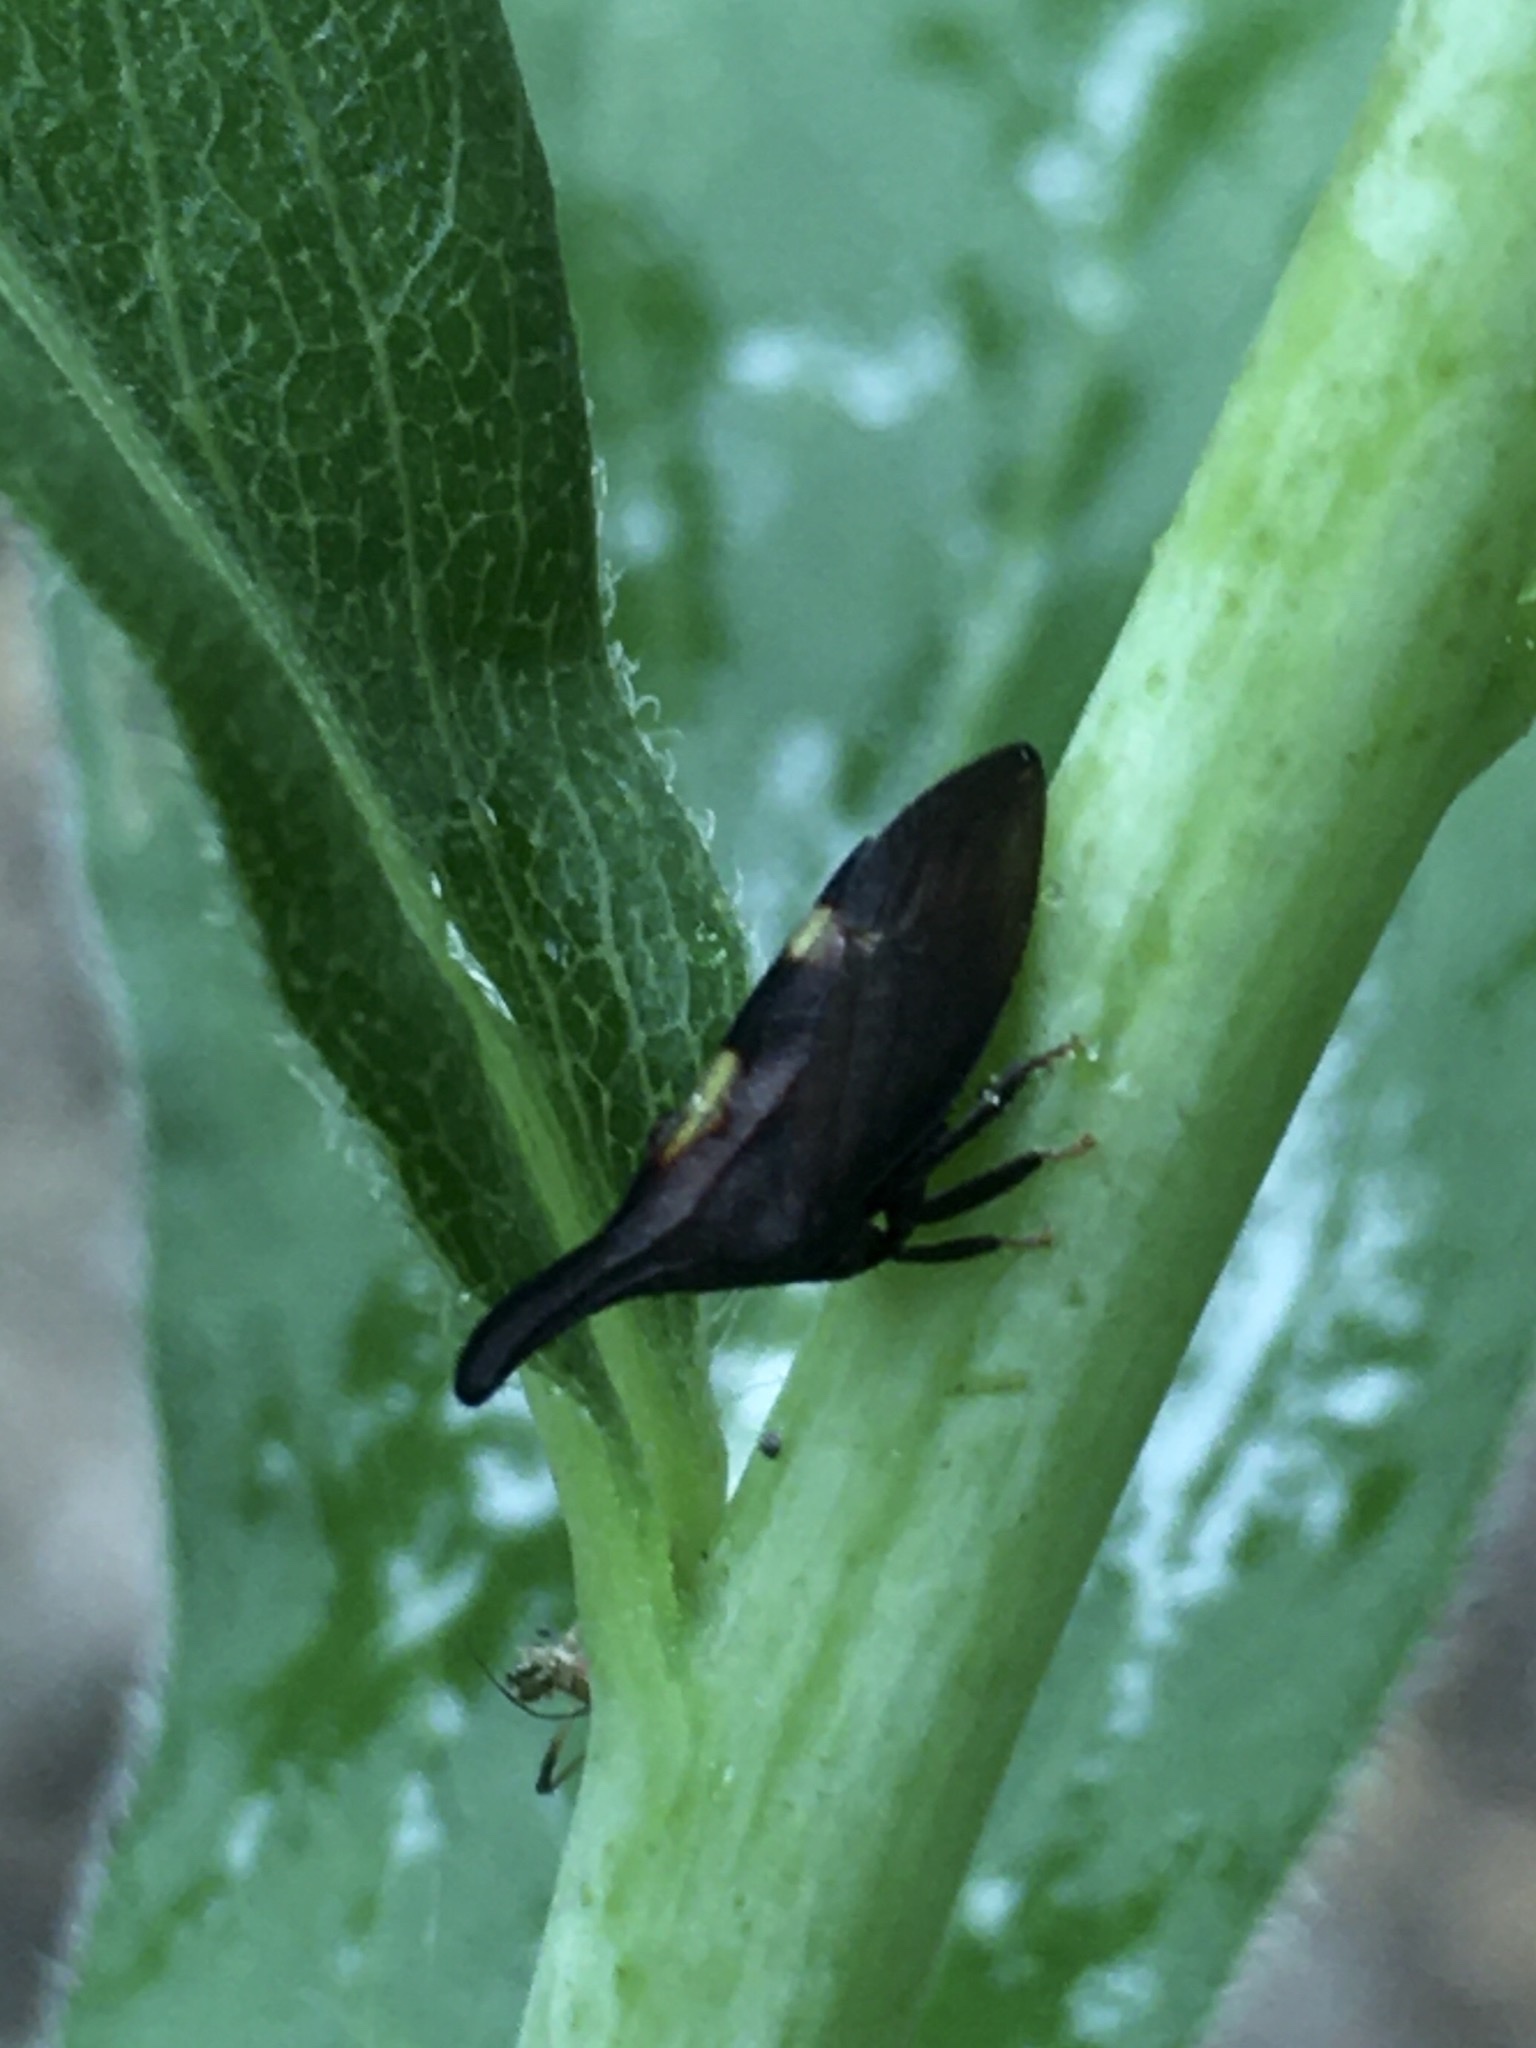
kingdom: Animalia
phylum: Arthropoda
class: Insecta
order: Hemiptera
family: Membracidae
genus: Enchenopa
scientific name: Enchenopa
